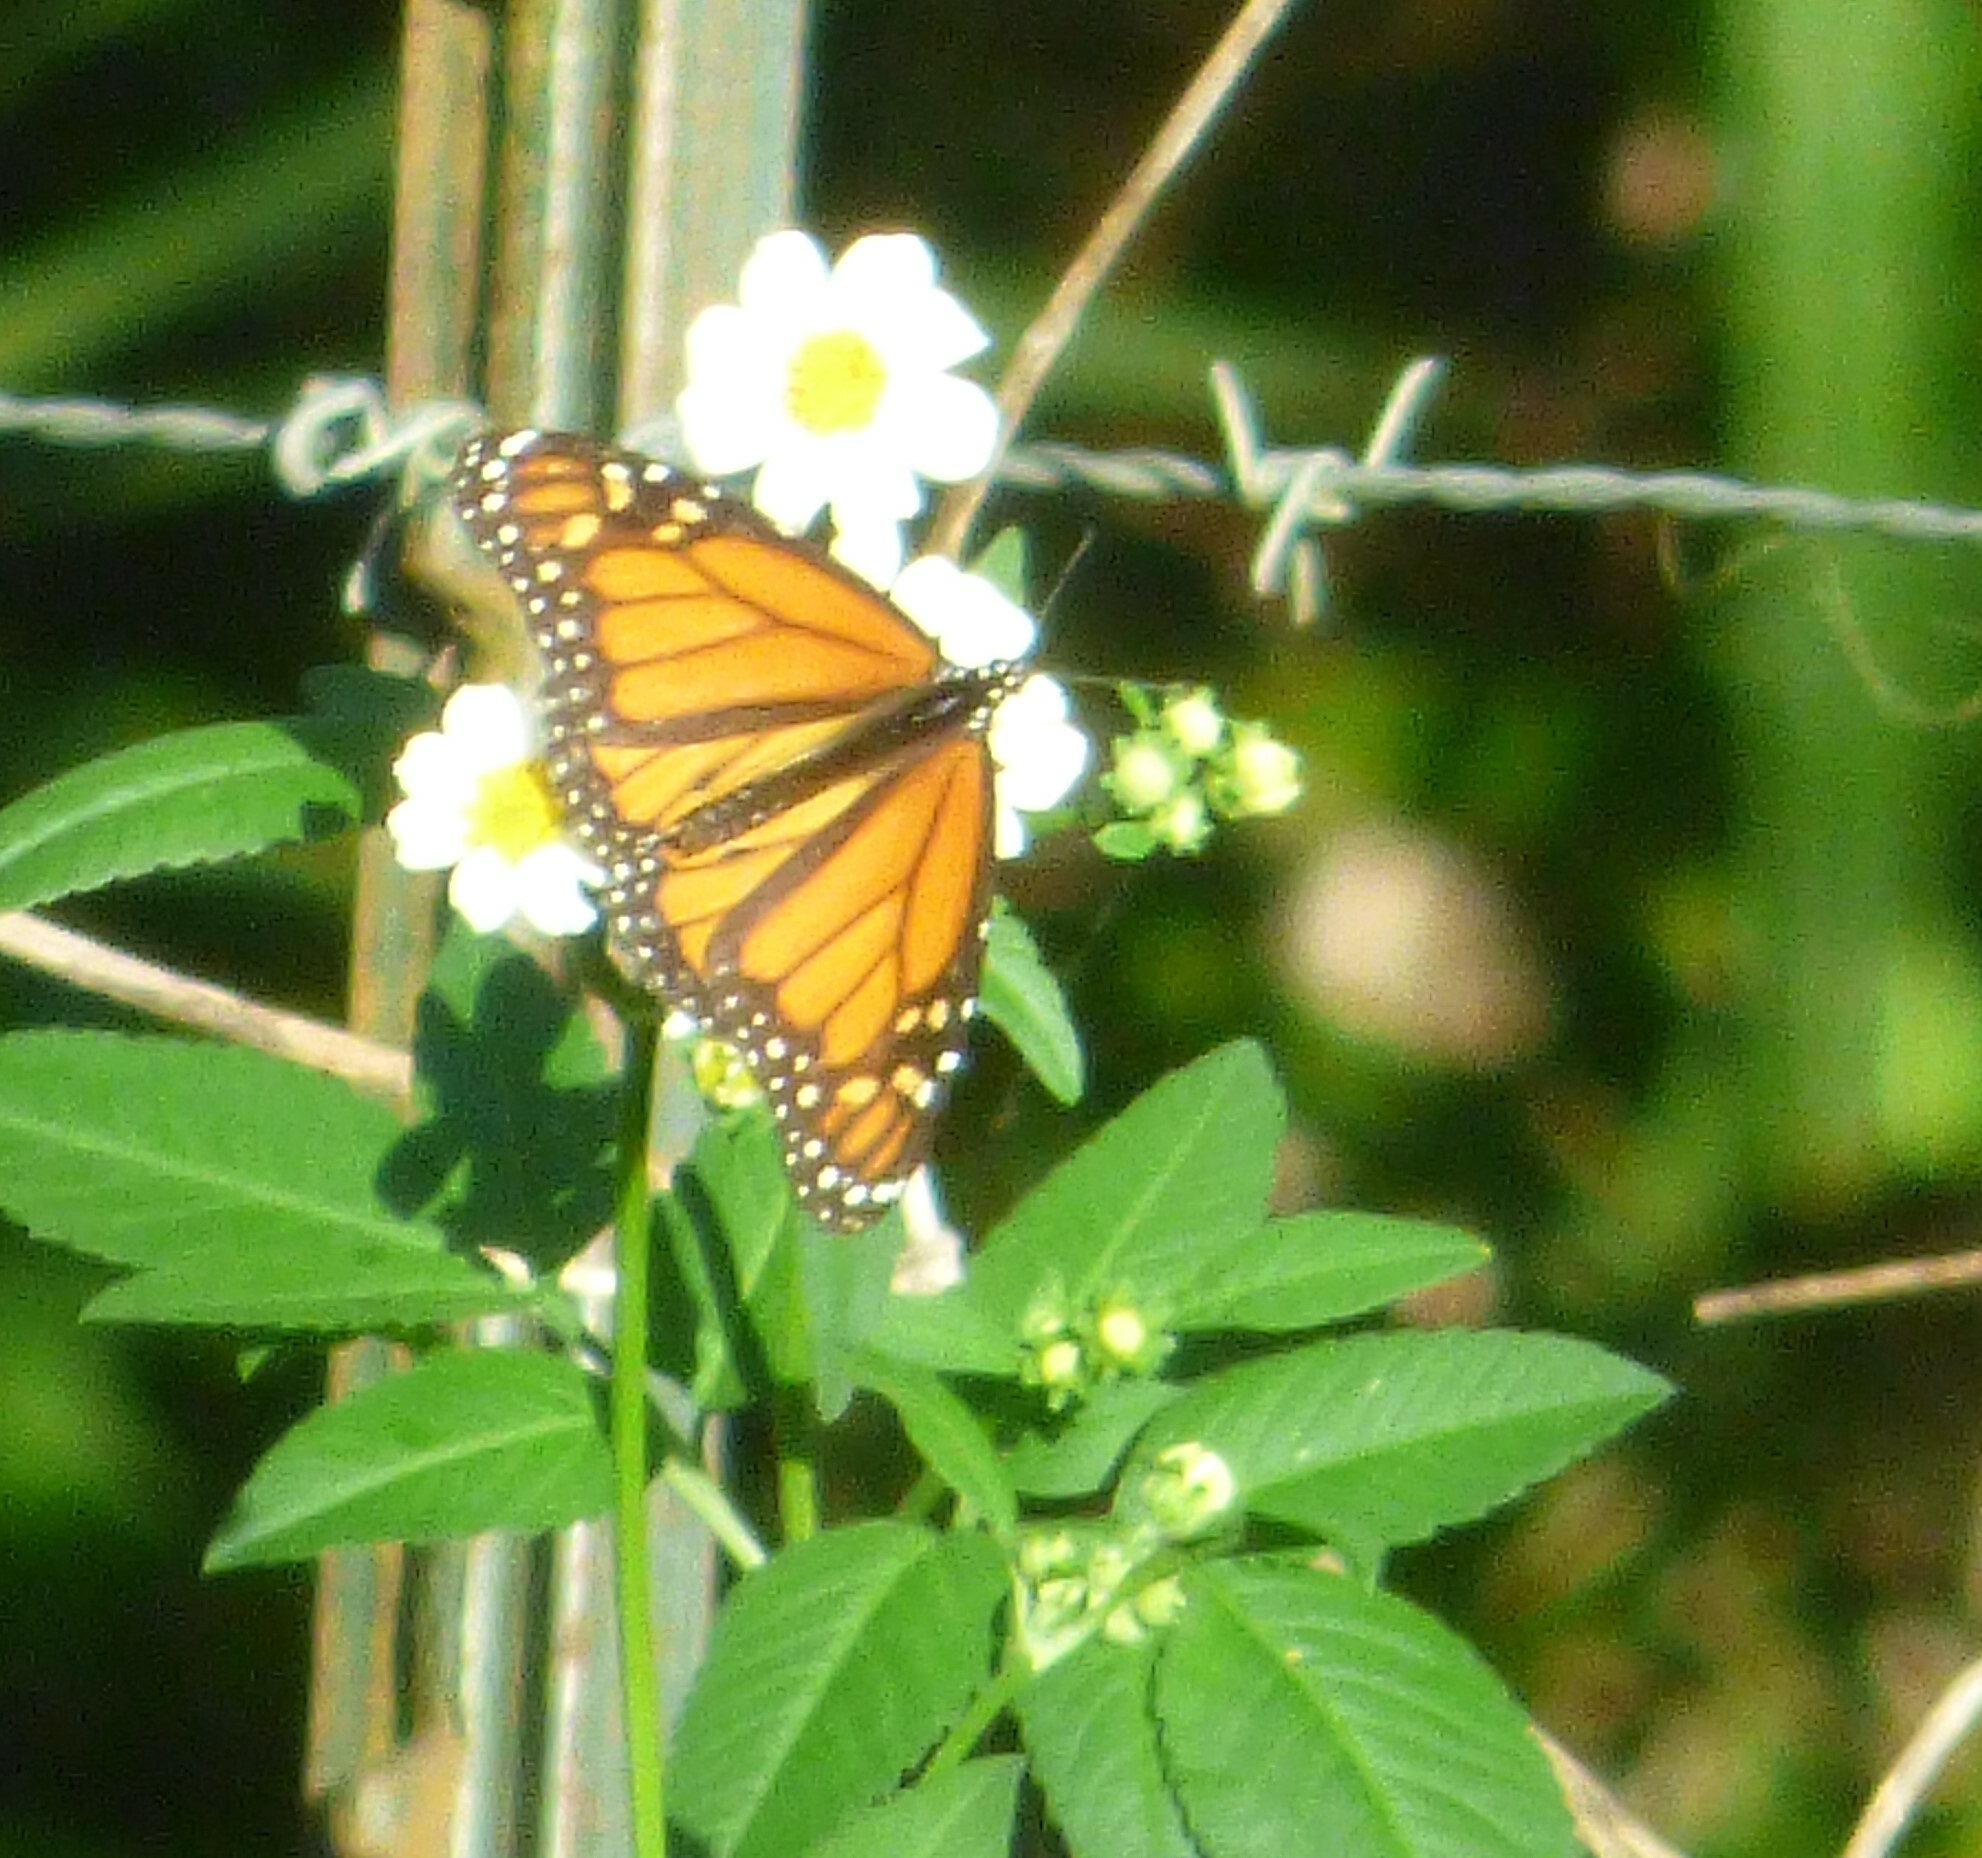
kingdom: Animalia
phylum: Arthropoda
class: Insecta
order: Lepidoptera
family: Nymphalidae
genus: Danaus
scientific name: Danaus plexippus
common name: Monarch
